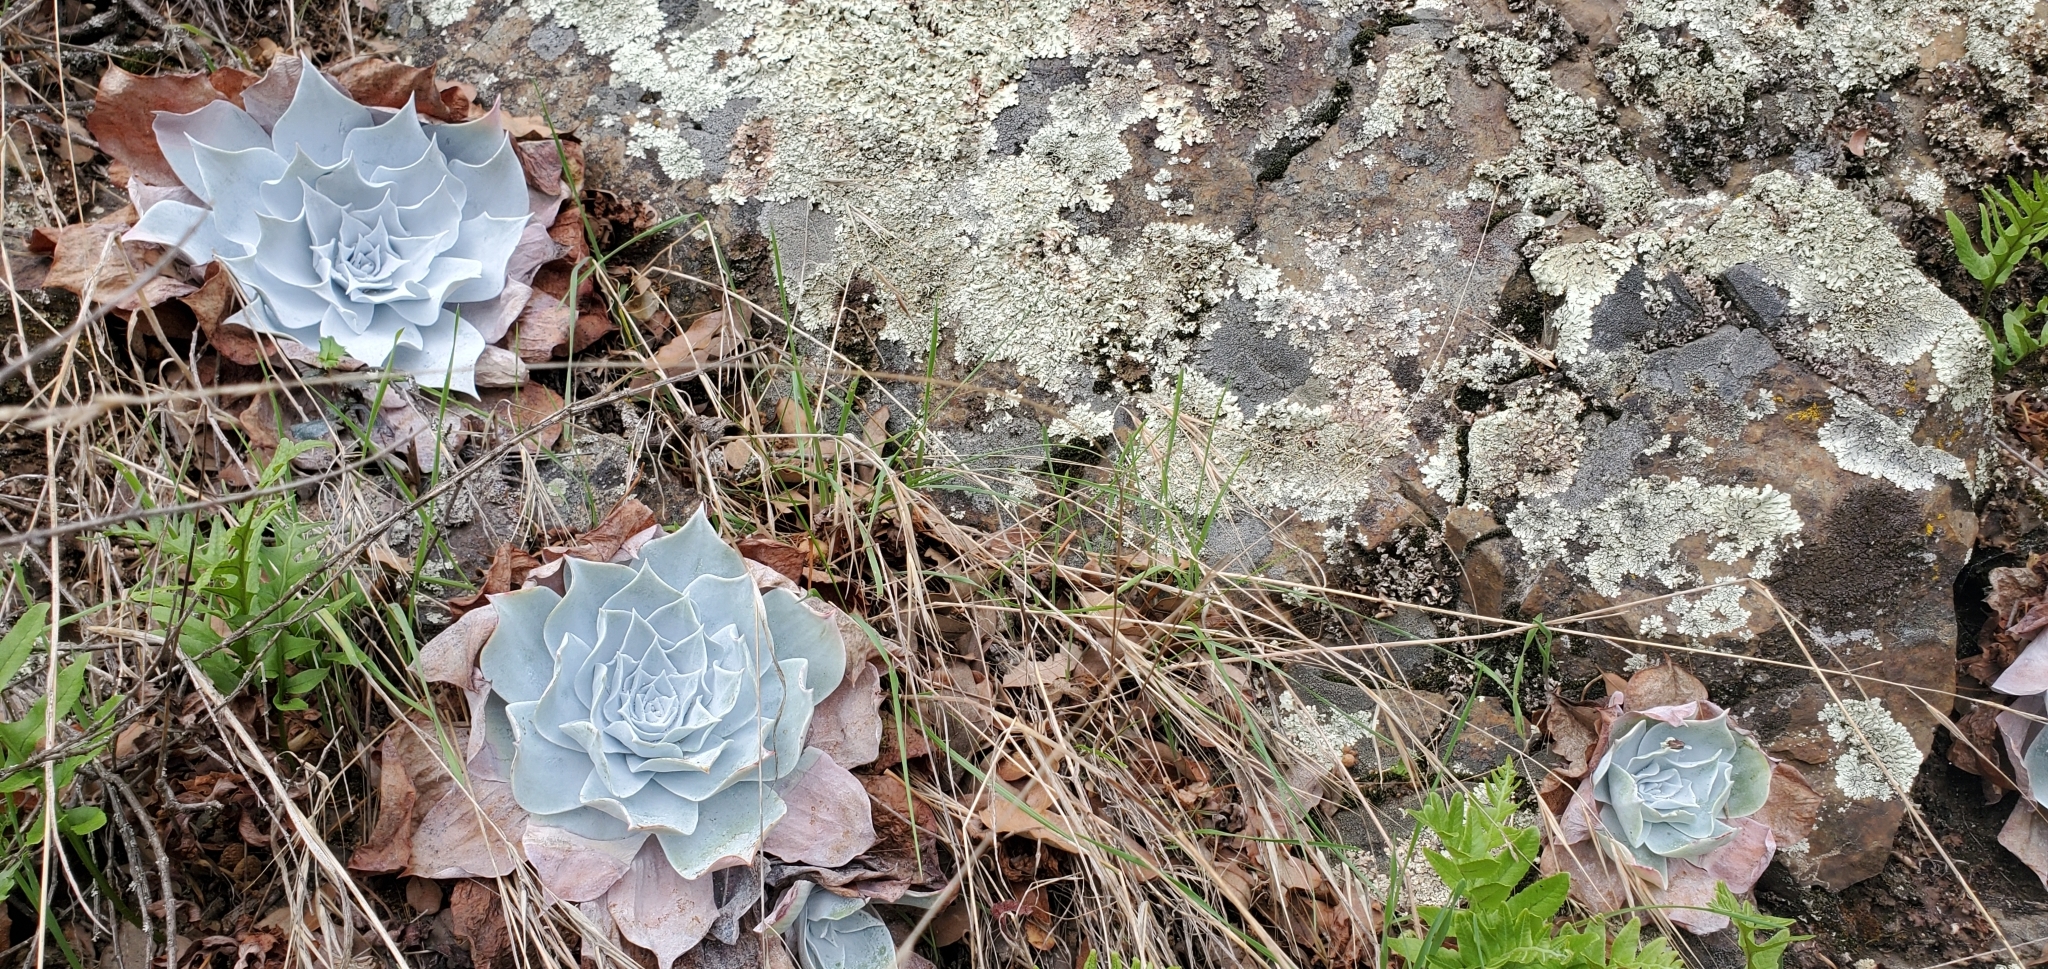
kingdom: Plantae
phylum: Tracheophyta
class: Magnoliopsida
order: Saxifragales
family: Crassulaceae
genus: Dudleya
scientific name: Dudleya pulverulenta
